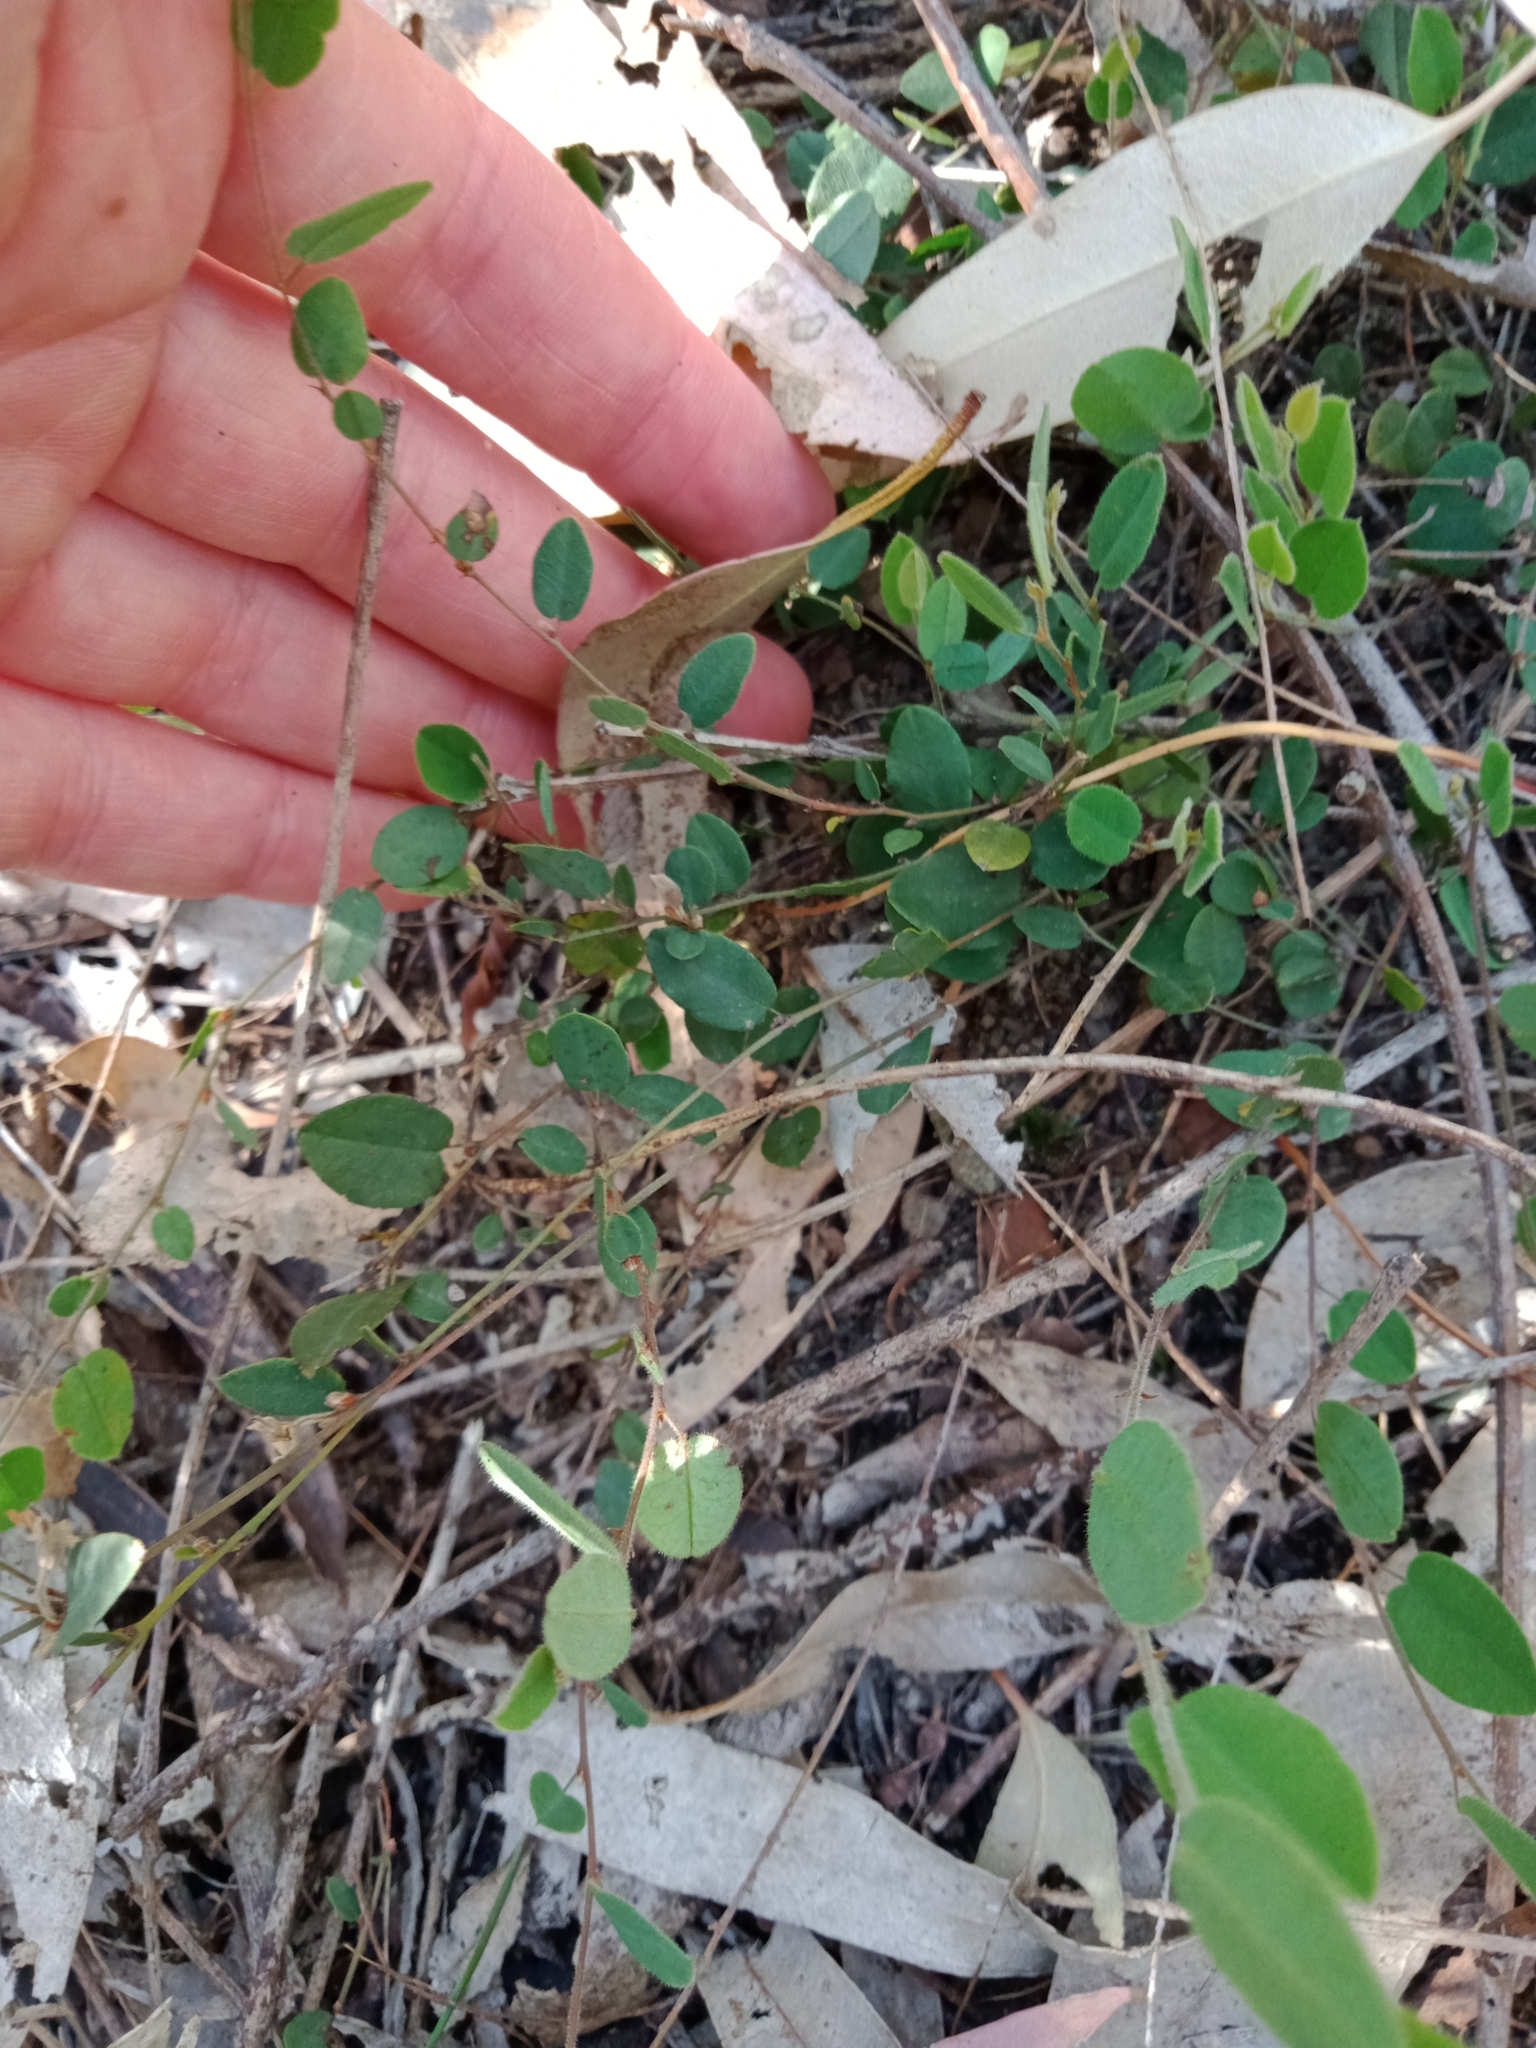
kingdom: Plantae
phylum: Tracheophyta
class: Magnoliopsida
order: Fabales
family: Fabaceae
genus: Bossiaea
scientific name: Bossiaea prostrata
